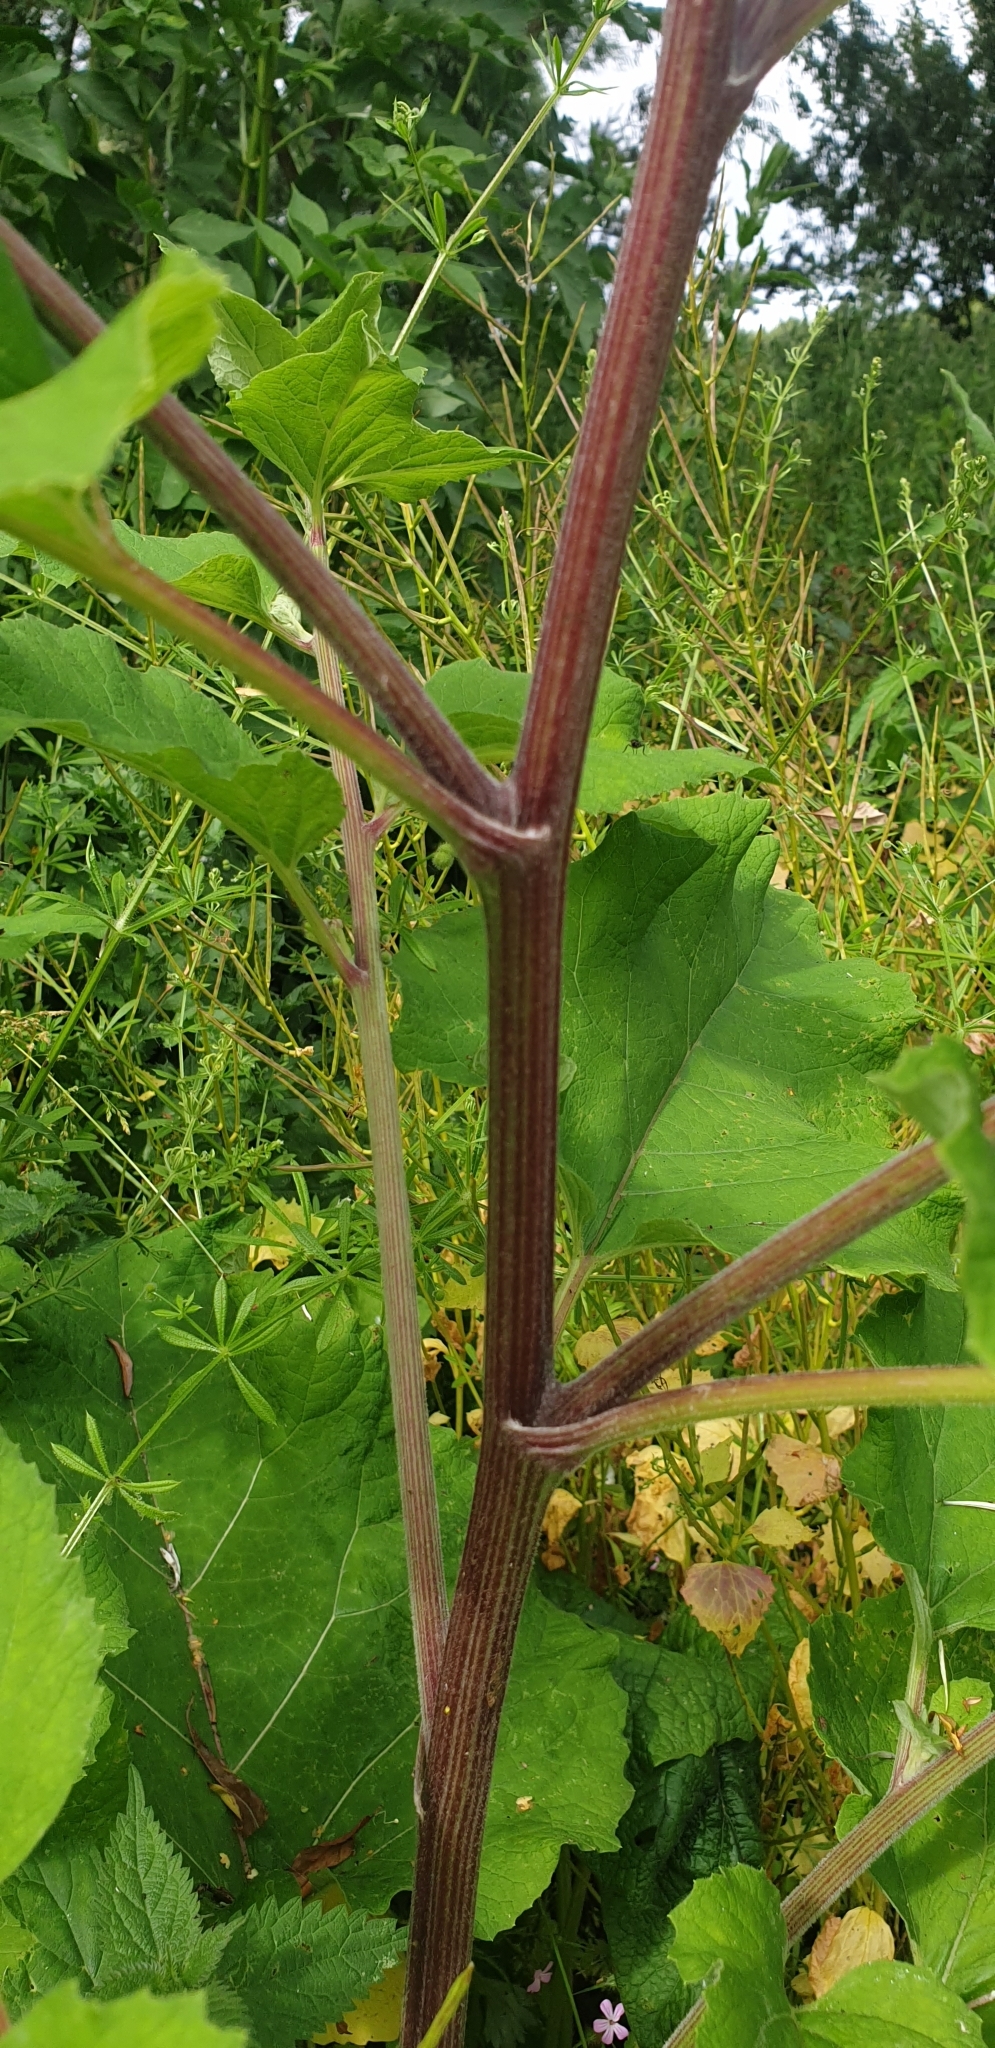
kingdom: Plantae
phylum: Tracheophyta
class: Magnoliopsida
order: Asterales
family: Asteraceae
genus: Arctium
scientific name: Arctium minus
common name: Lesser burdock
